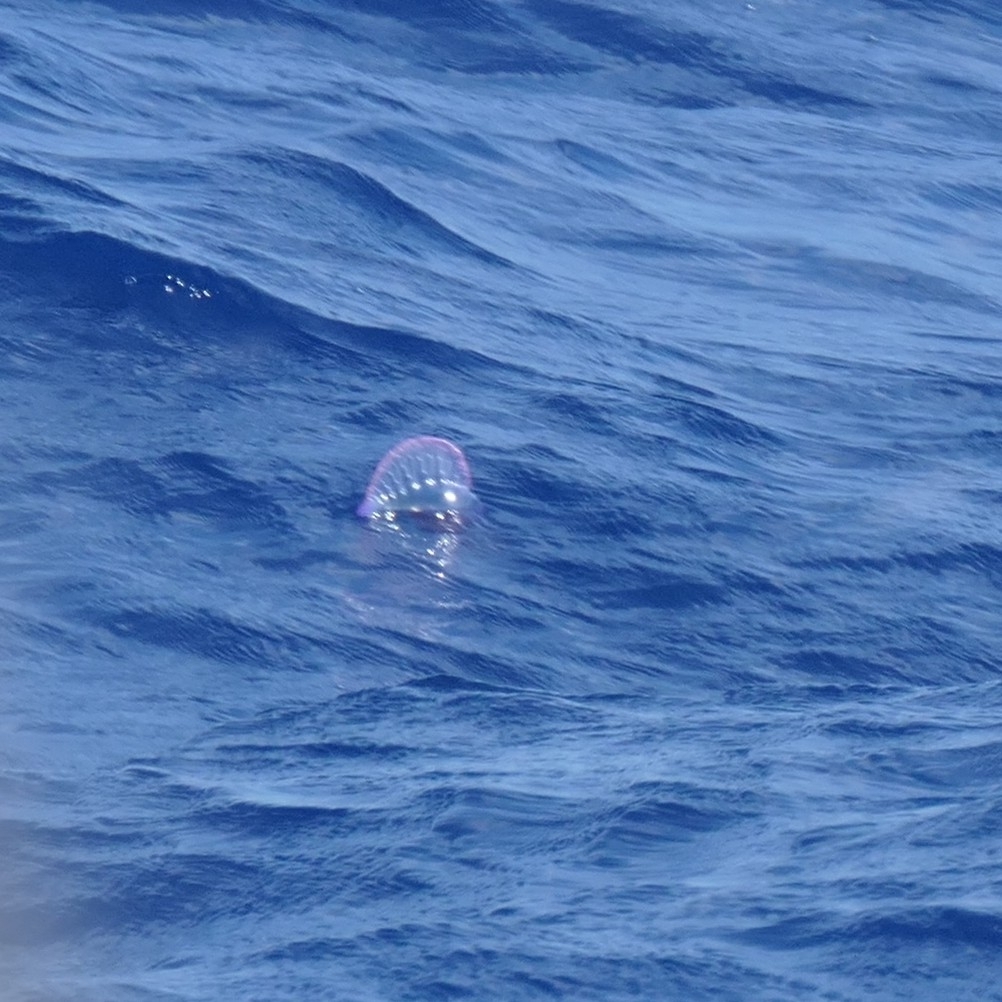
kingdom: Animalia
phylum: Cnidaria
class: Hydrozoa
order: Siphonophorae
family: Physaliidae
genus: Physalia
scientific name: Physalia physalis
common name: Portuguese man-of-war
